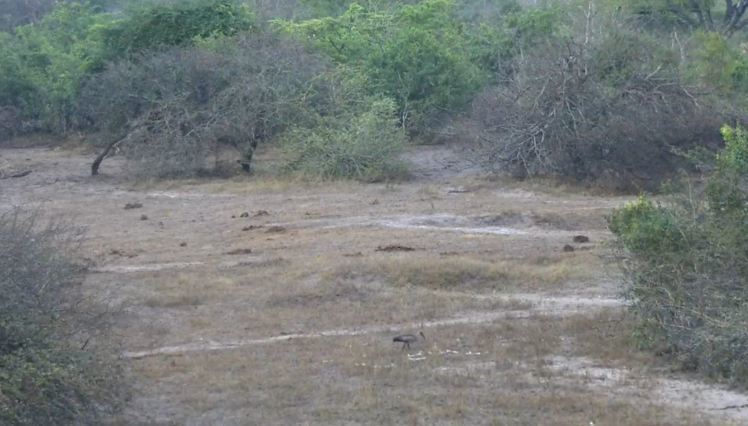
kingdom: Animalia
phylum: Chordata
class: Aves
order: Pelecaniformes
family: Threskiornithidae
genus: Bostrychia
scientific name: Bostrychia hagedash
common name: Hadada ibis
